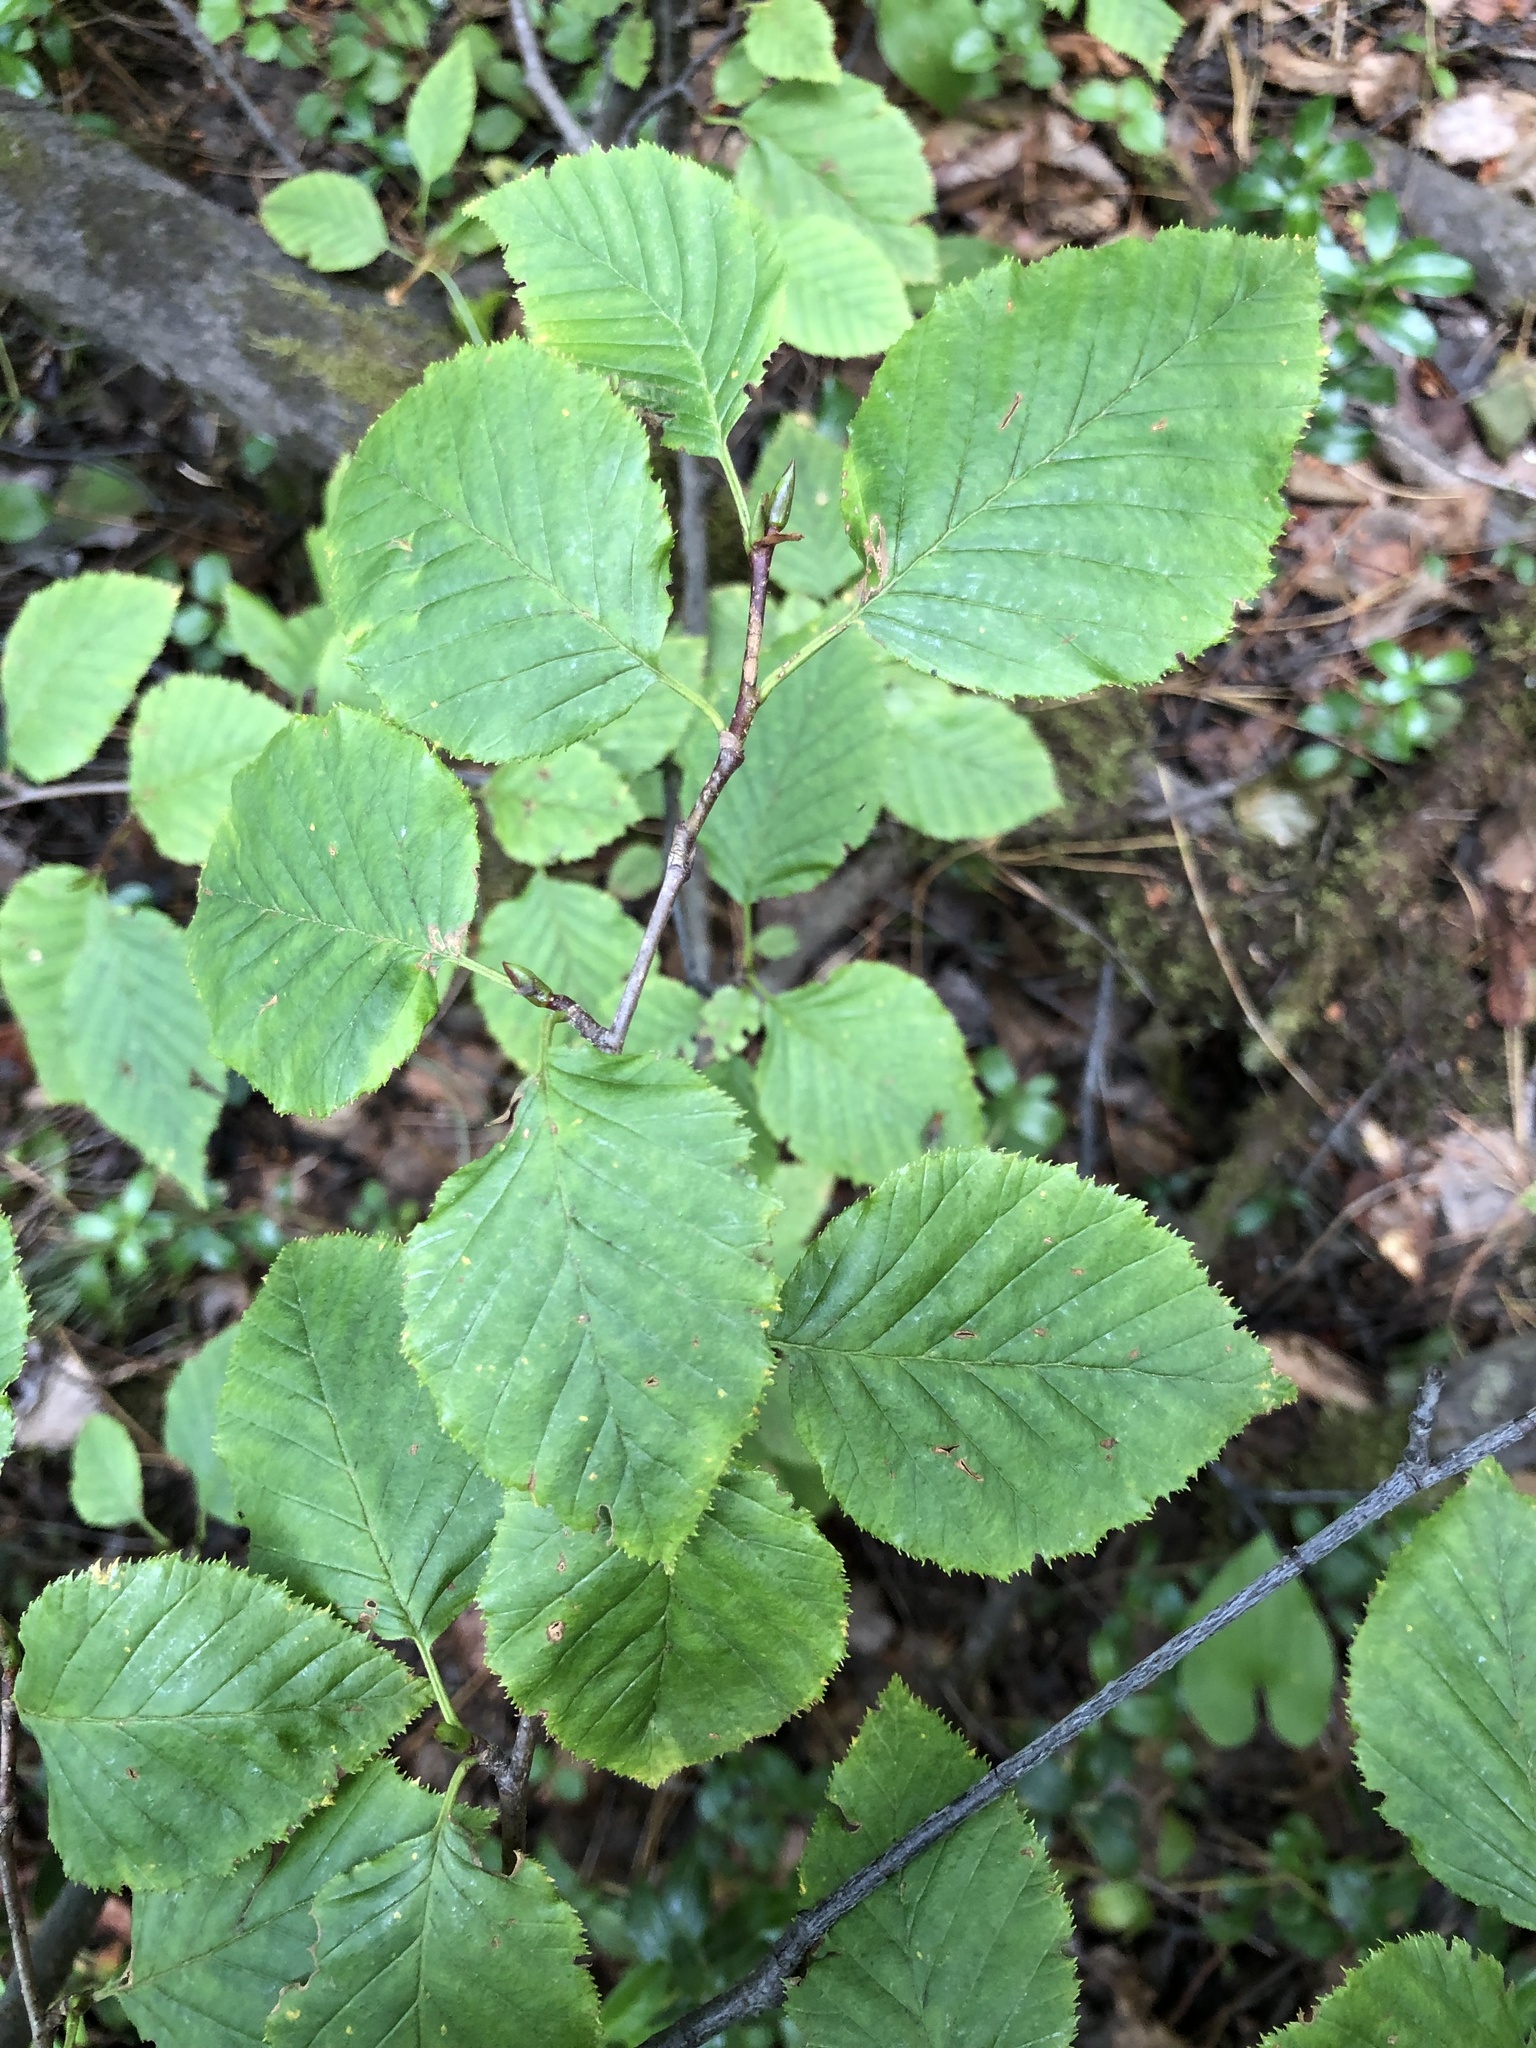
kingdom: Plantae
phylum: Tracheophyta
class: Magnoliopsida
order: Fagales
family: Betulaceae
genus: Alnus
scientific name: Alnus alnobetula
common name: Green alder
